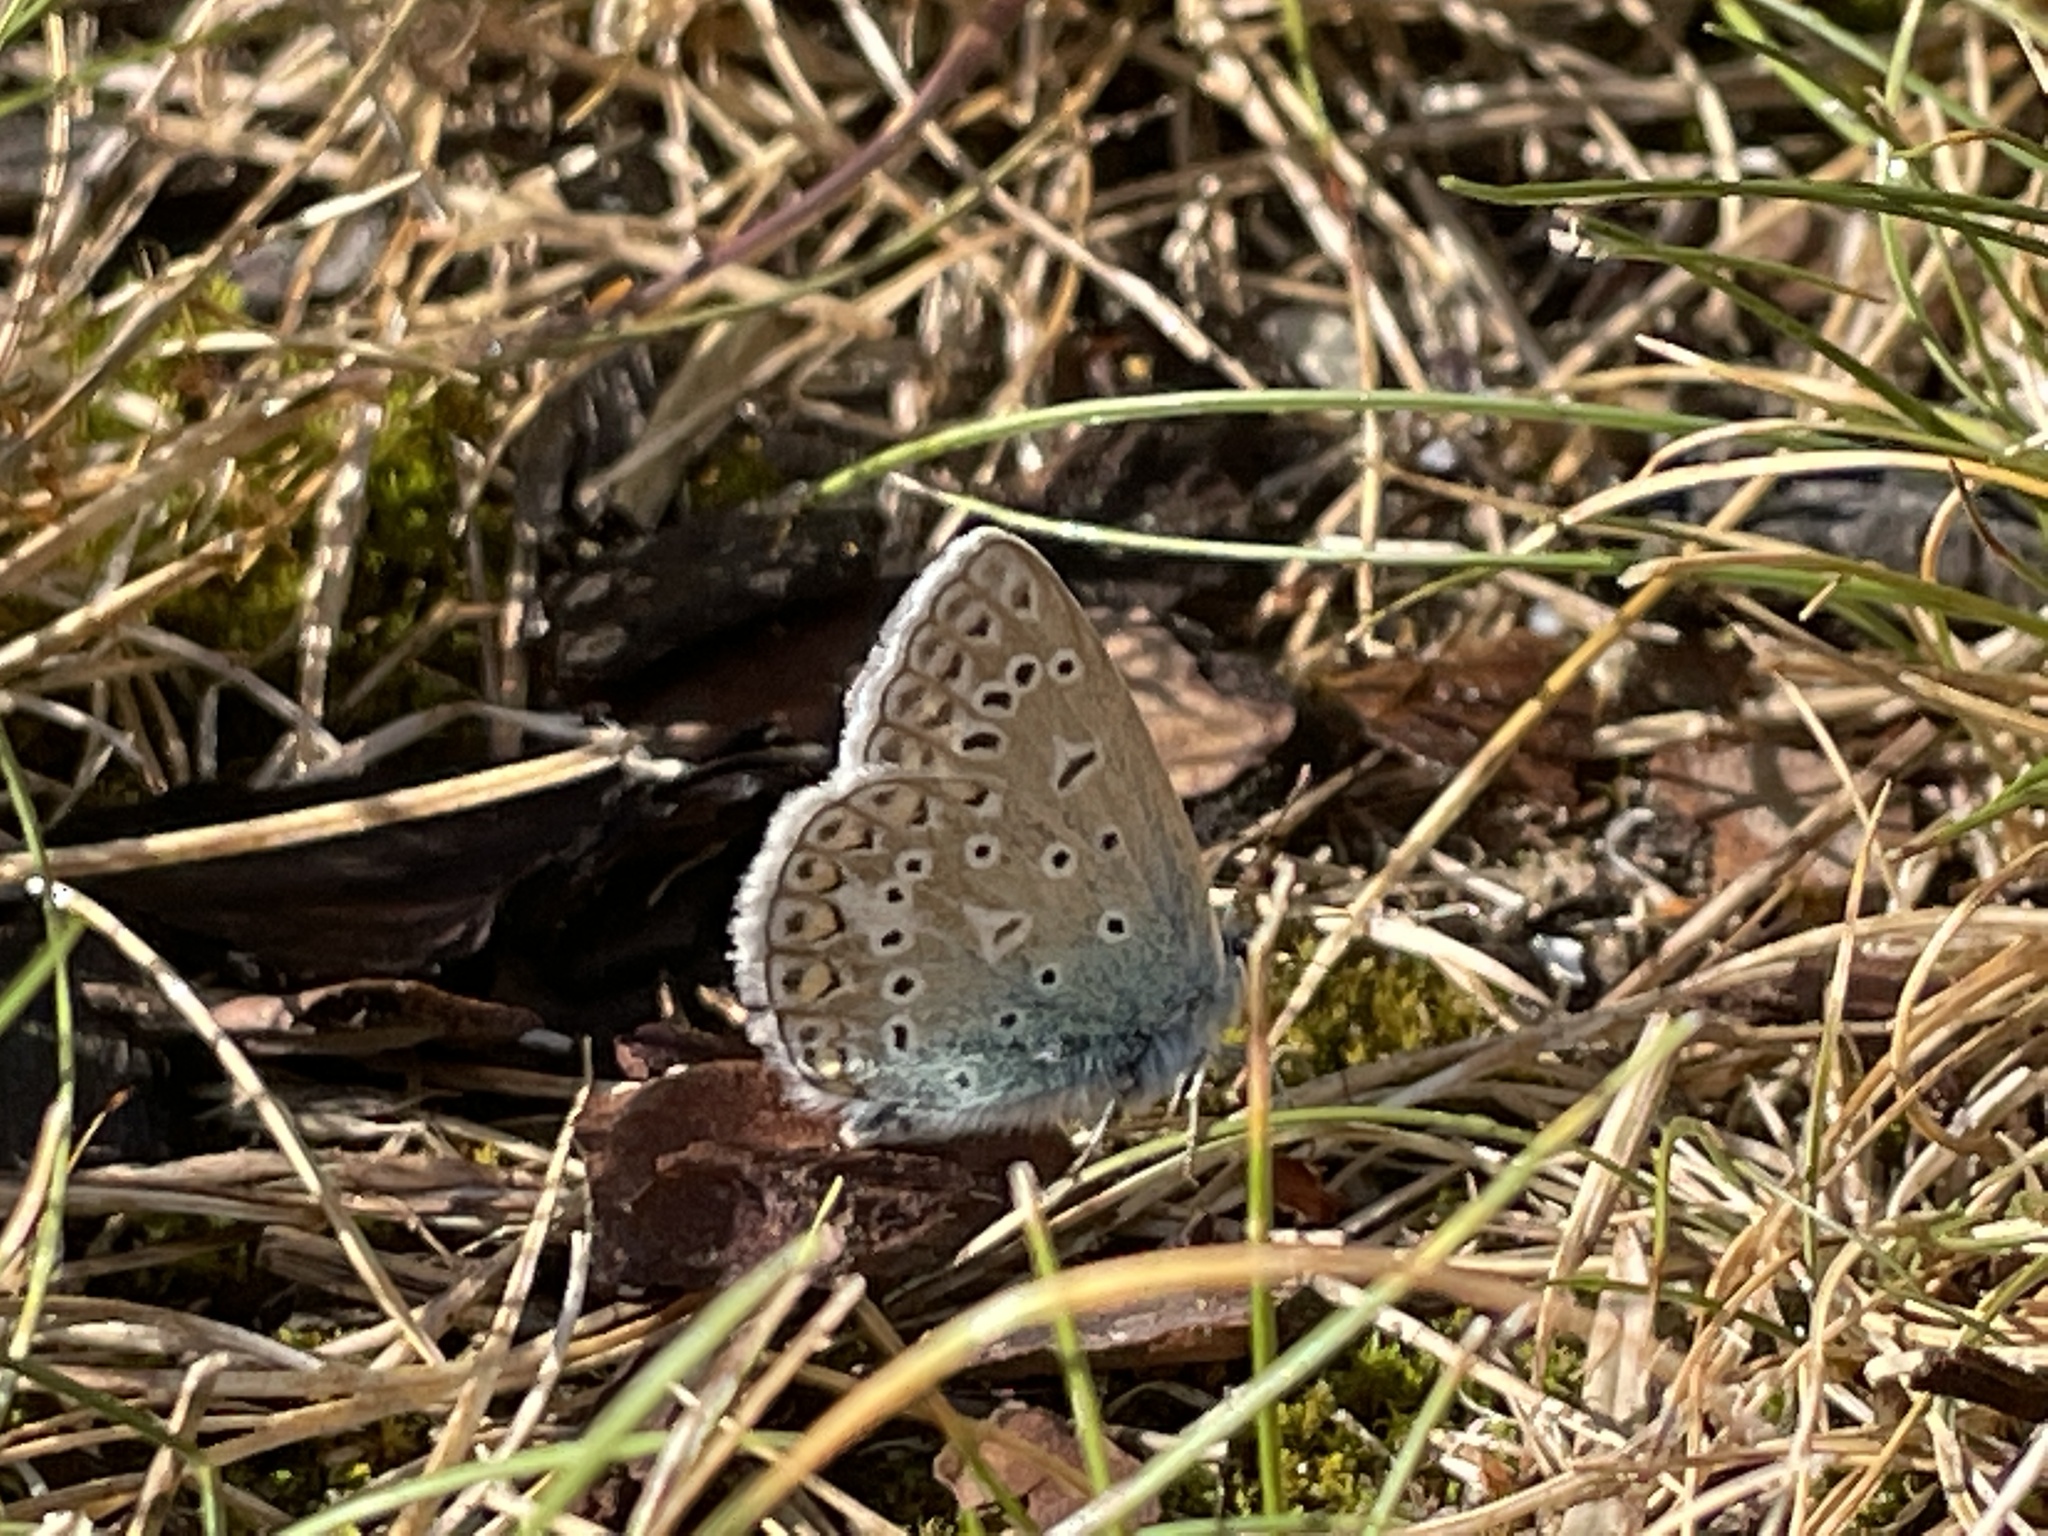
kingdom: Animalia
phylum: Arthropoda
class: Insecta
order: Lepidoptera
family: Lycaenidae
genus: Polyommatus
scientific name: Polyommatus icarus
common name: Common blue
